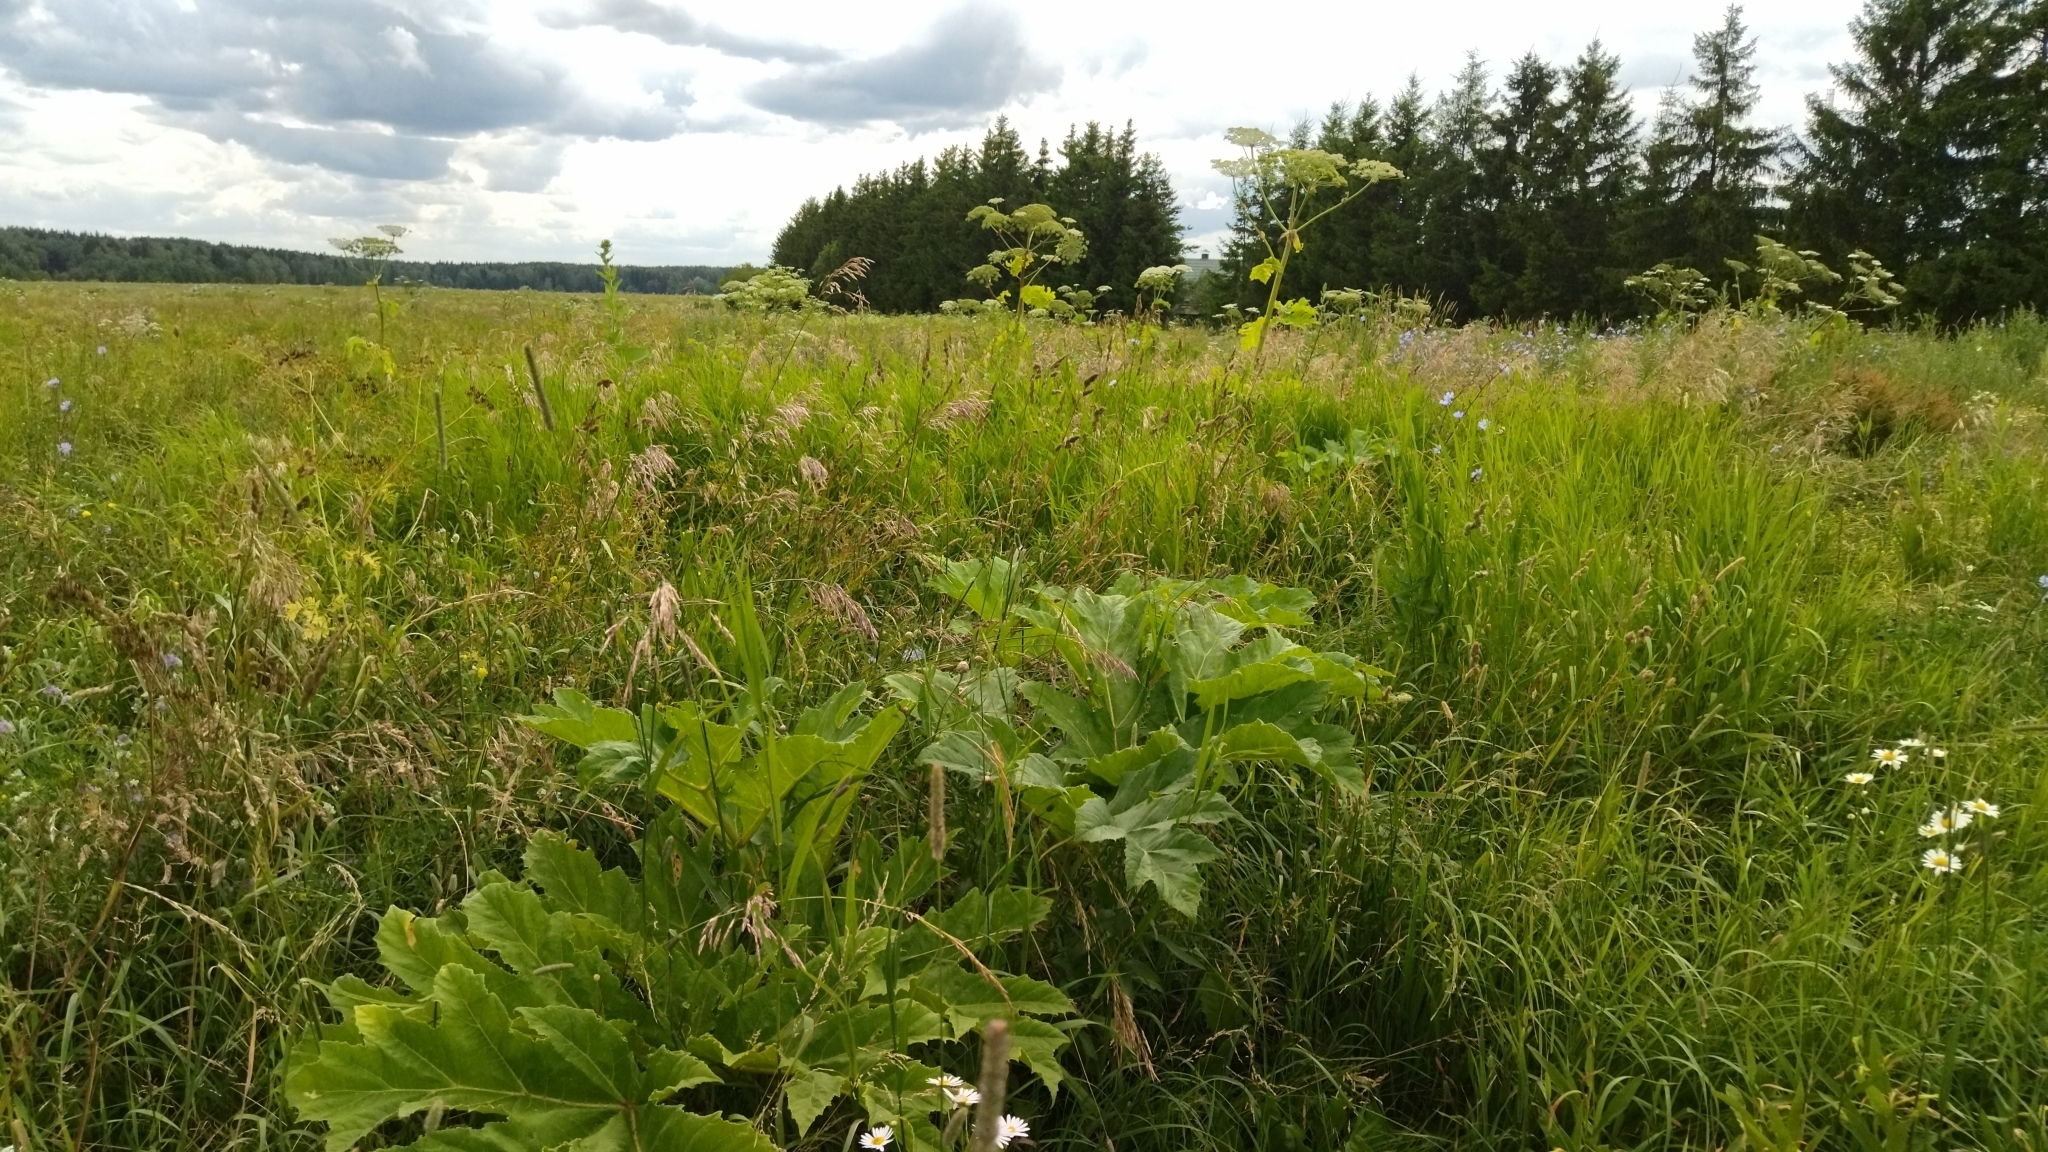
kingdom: Plantae
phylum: Tracheophyta
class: Magnoliopsida
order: Apiales
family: Apiaceae
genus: Heracleum
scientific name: Heracleum sosnowskyi
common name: Sosnowsky's hogweed
